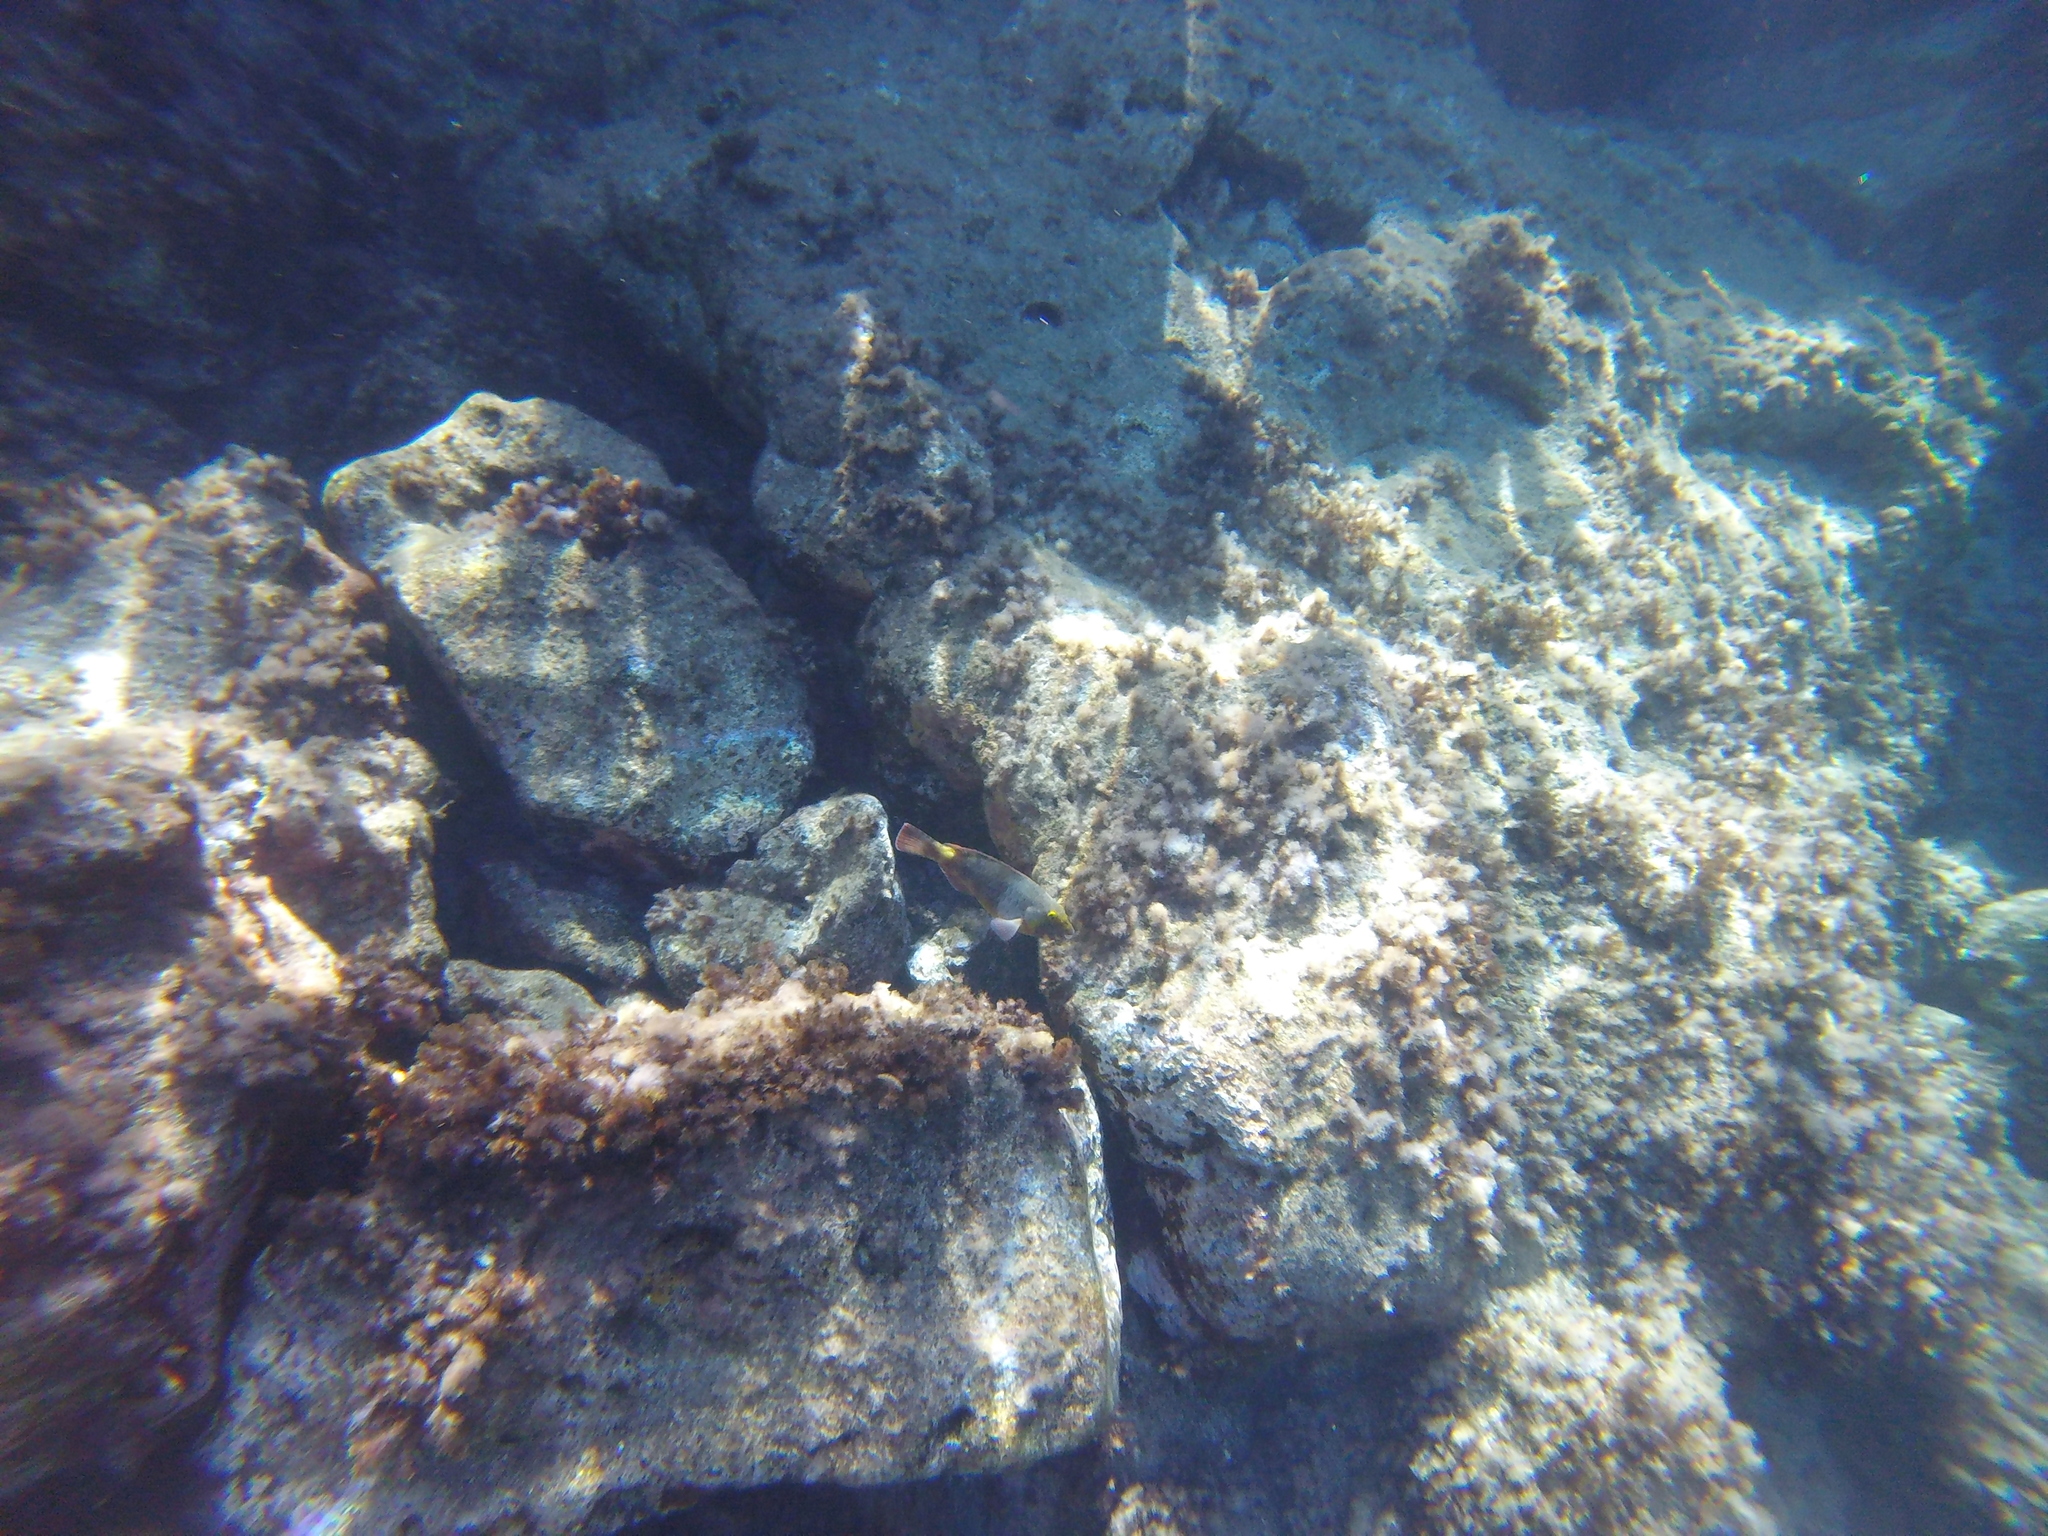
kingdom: Animalia
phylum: Chordata
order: Perciformes
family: Scaridae
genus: Sparisoma
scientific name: Sparisoma cretense
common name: Parrotfish
